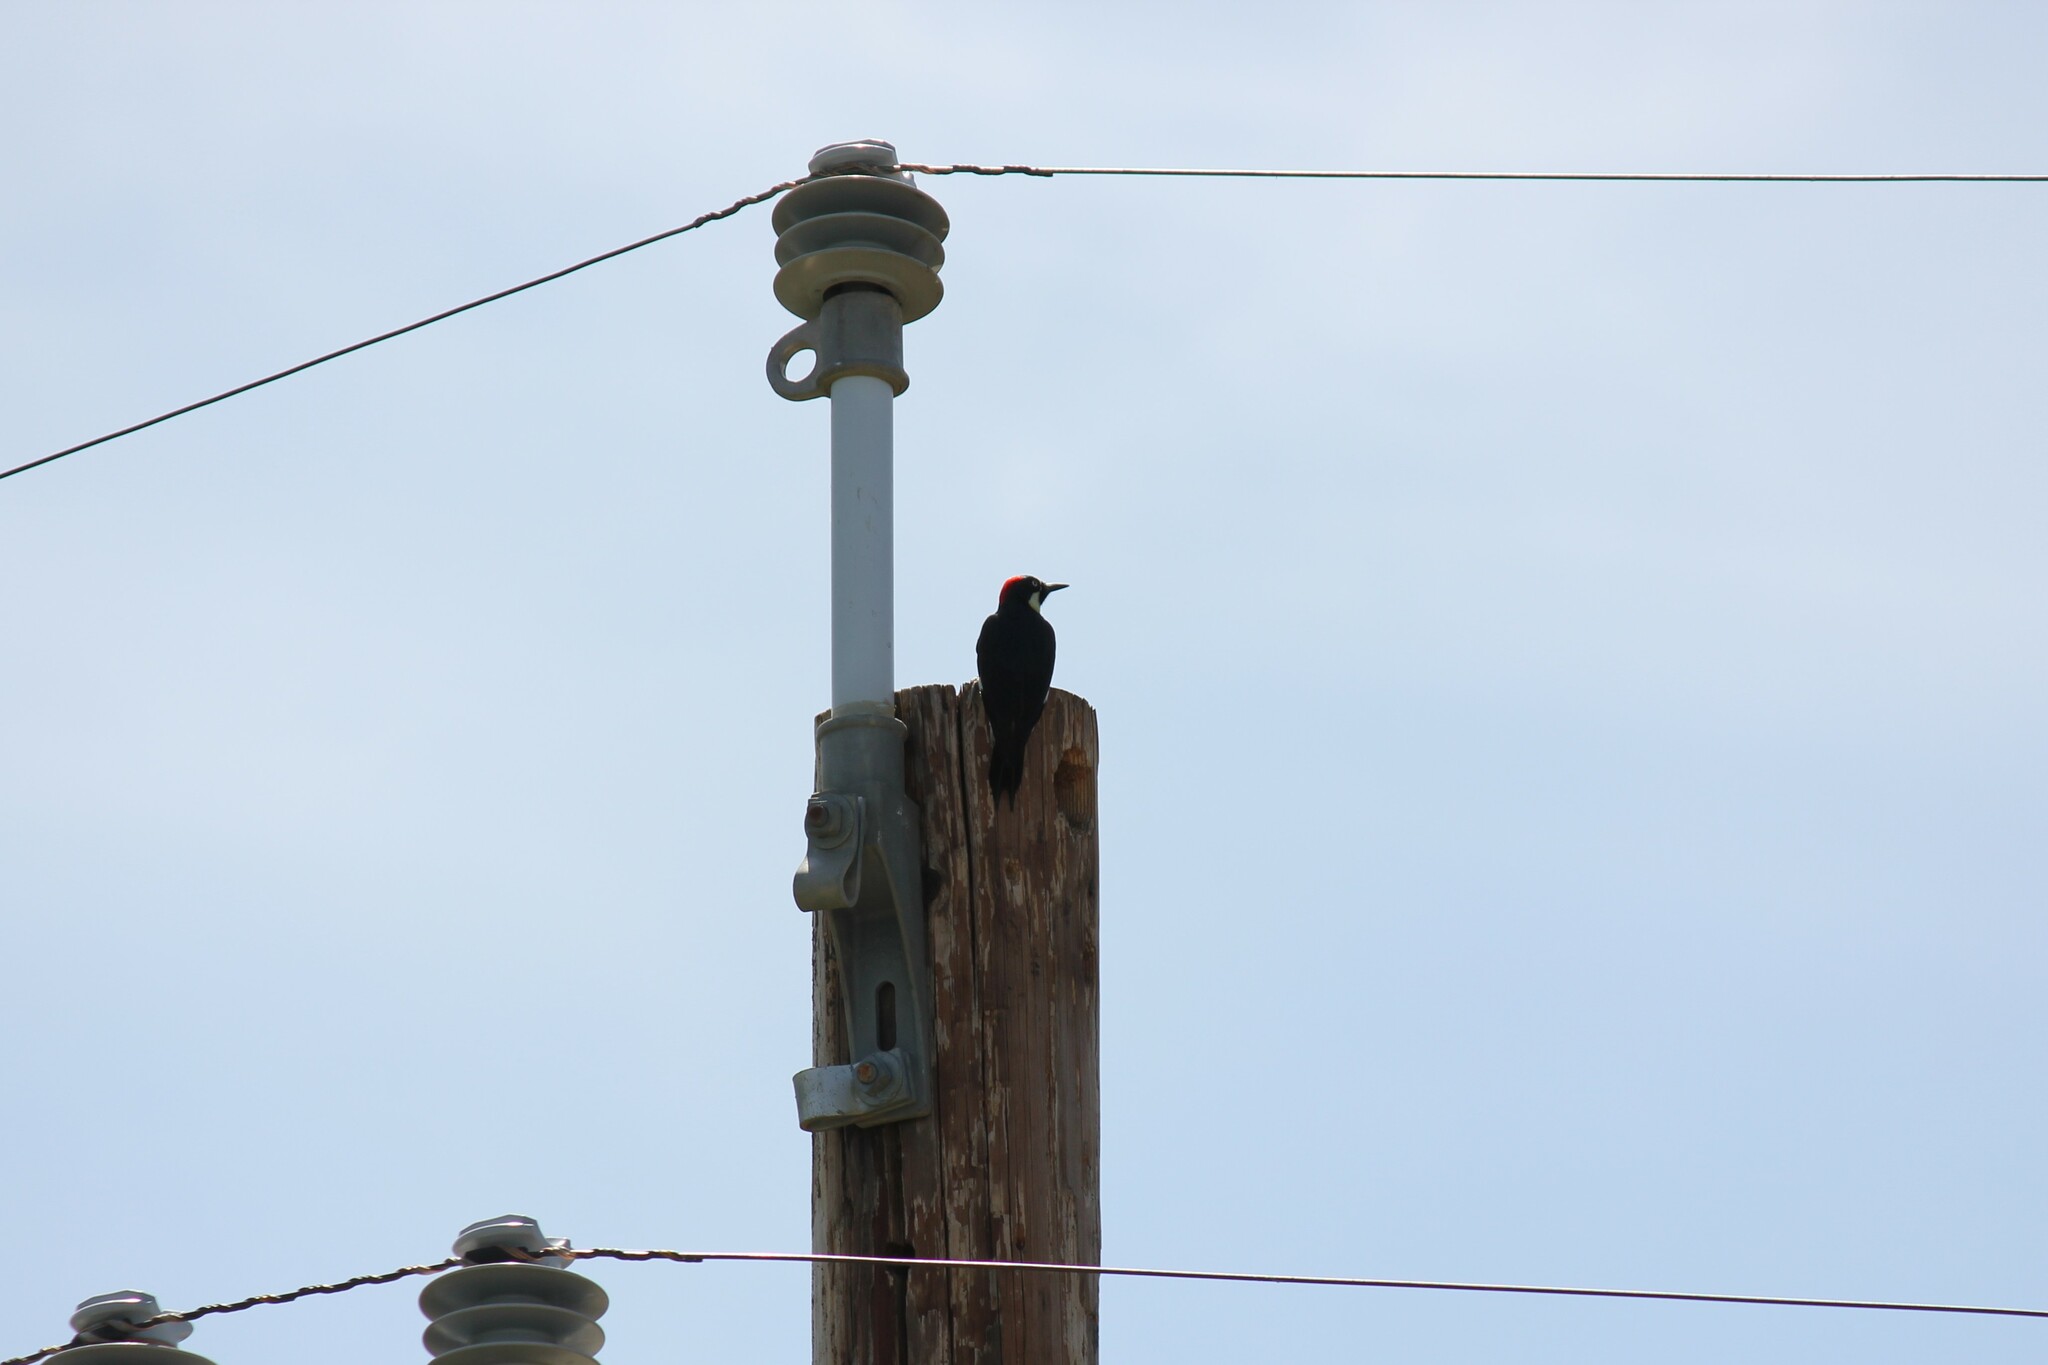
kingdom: Animalia
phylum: Chordata
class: Aves
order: Piciformes
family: Picidae
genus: Melanerpes
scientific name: Melanerpes formicivorus
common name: Acorn woodpecker
